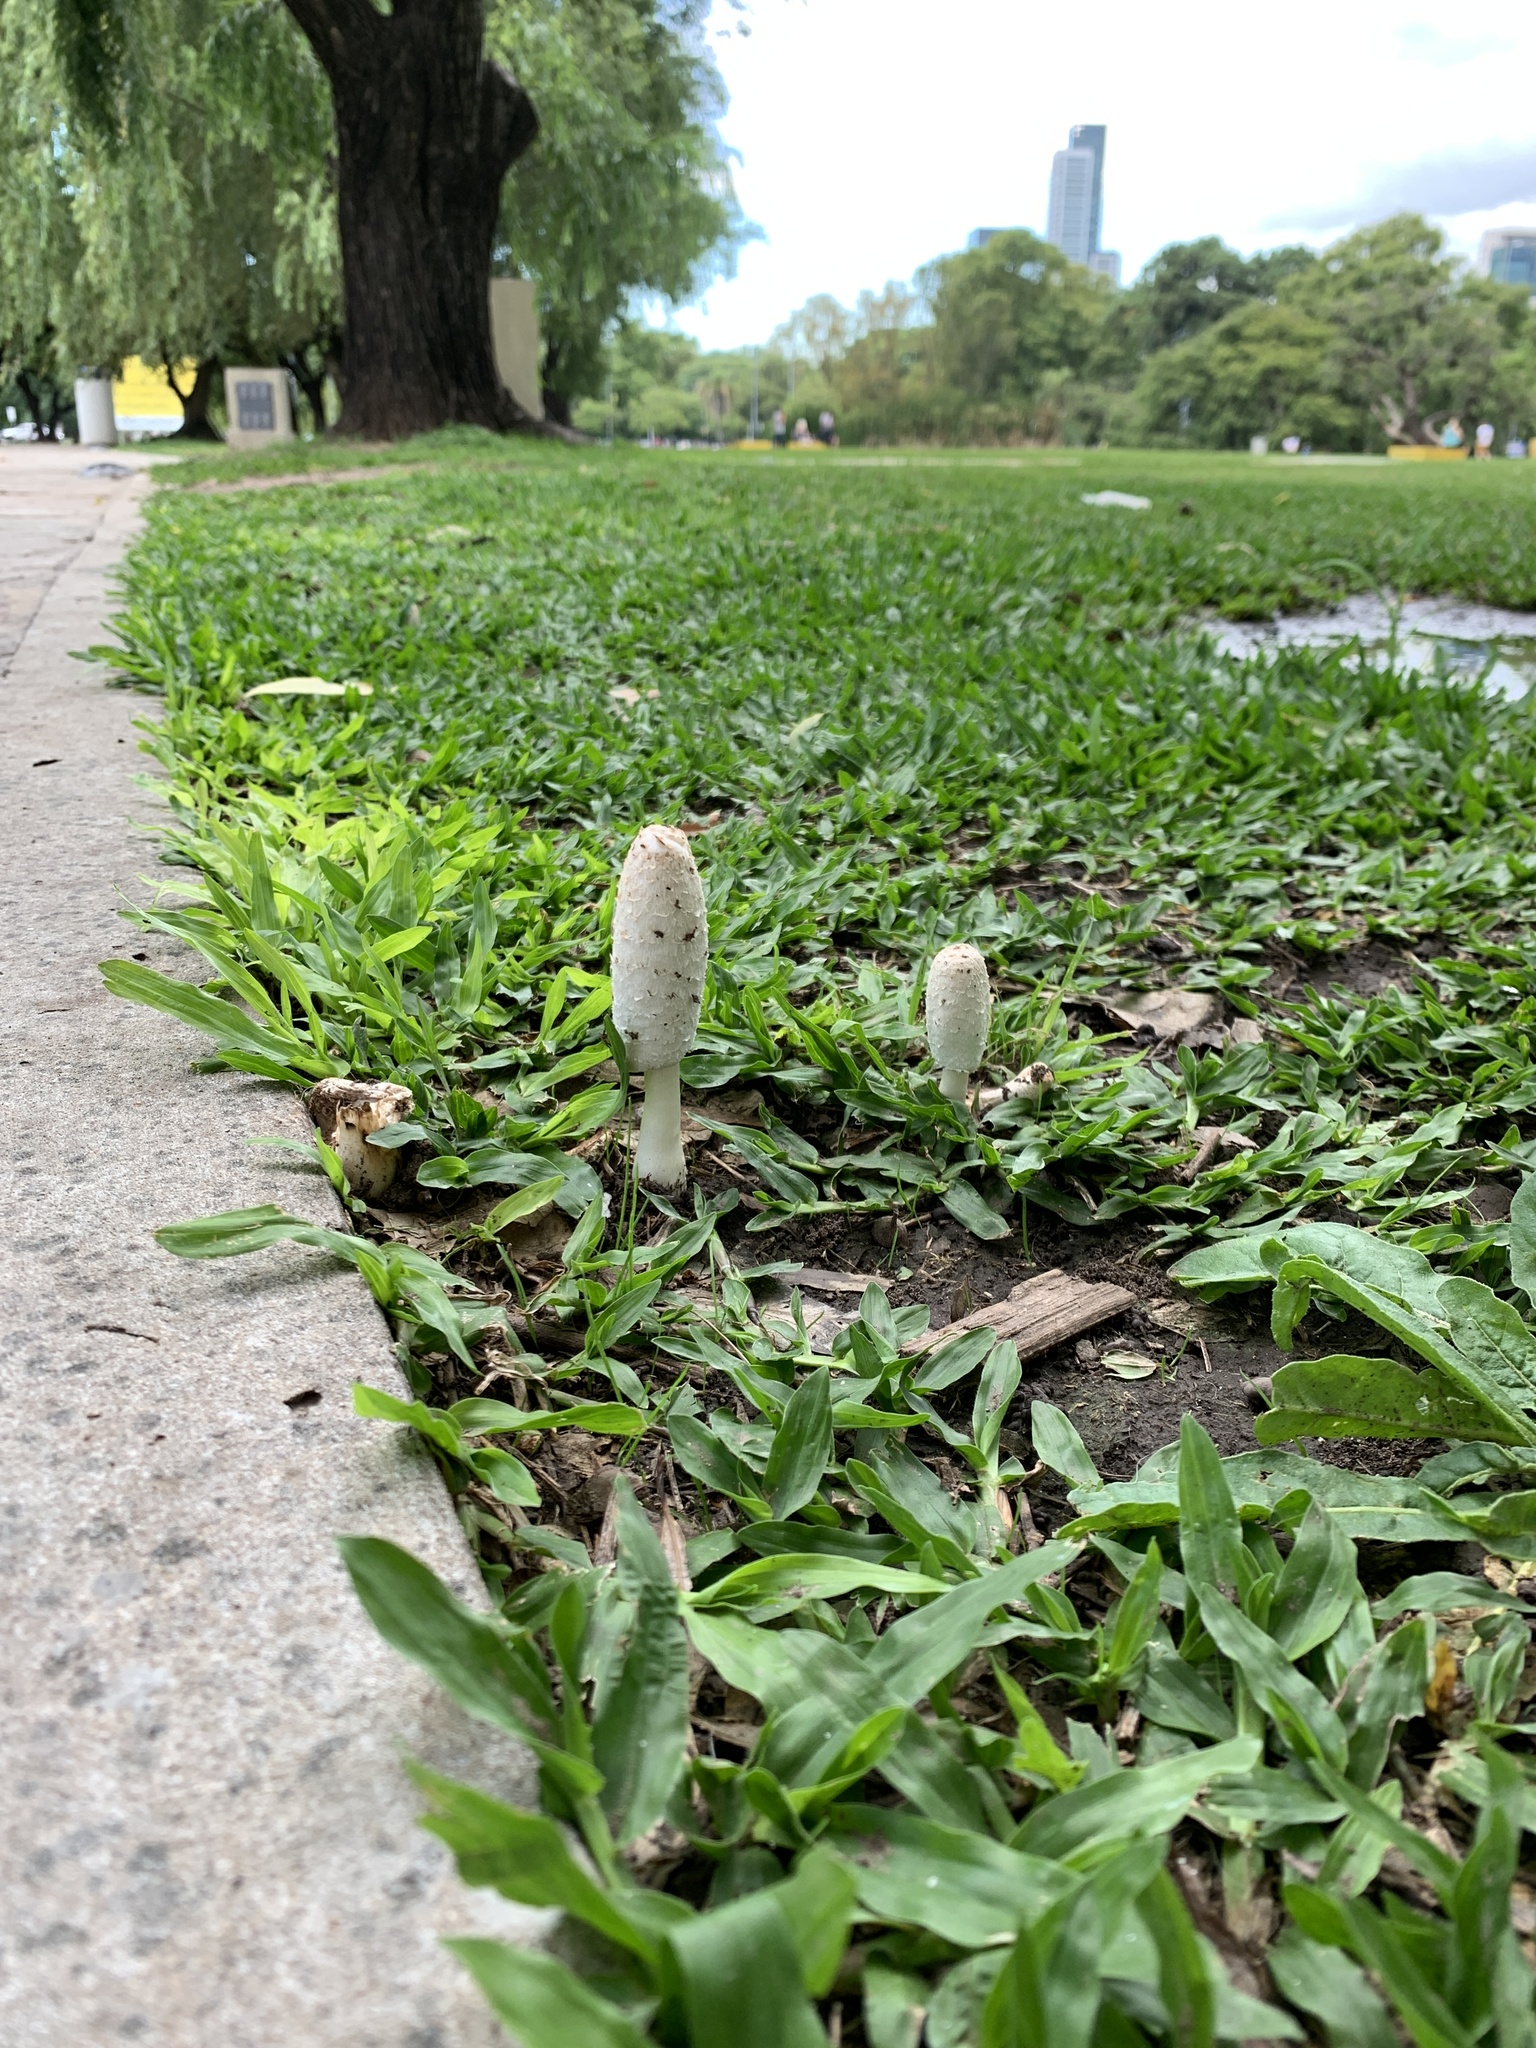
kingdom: Fungi
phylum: Basidiomycota
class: Agaricomycetes
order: Agaricales
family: Agaricaceae
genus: Coprinus
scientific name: Coprinus comatus
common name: Lawyer's wig
